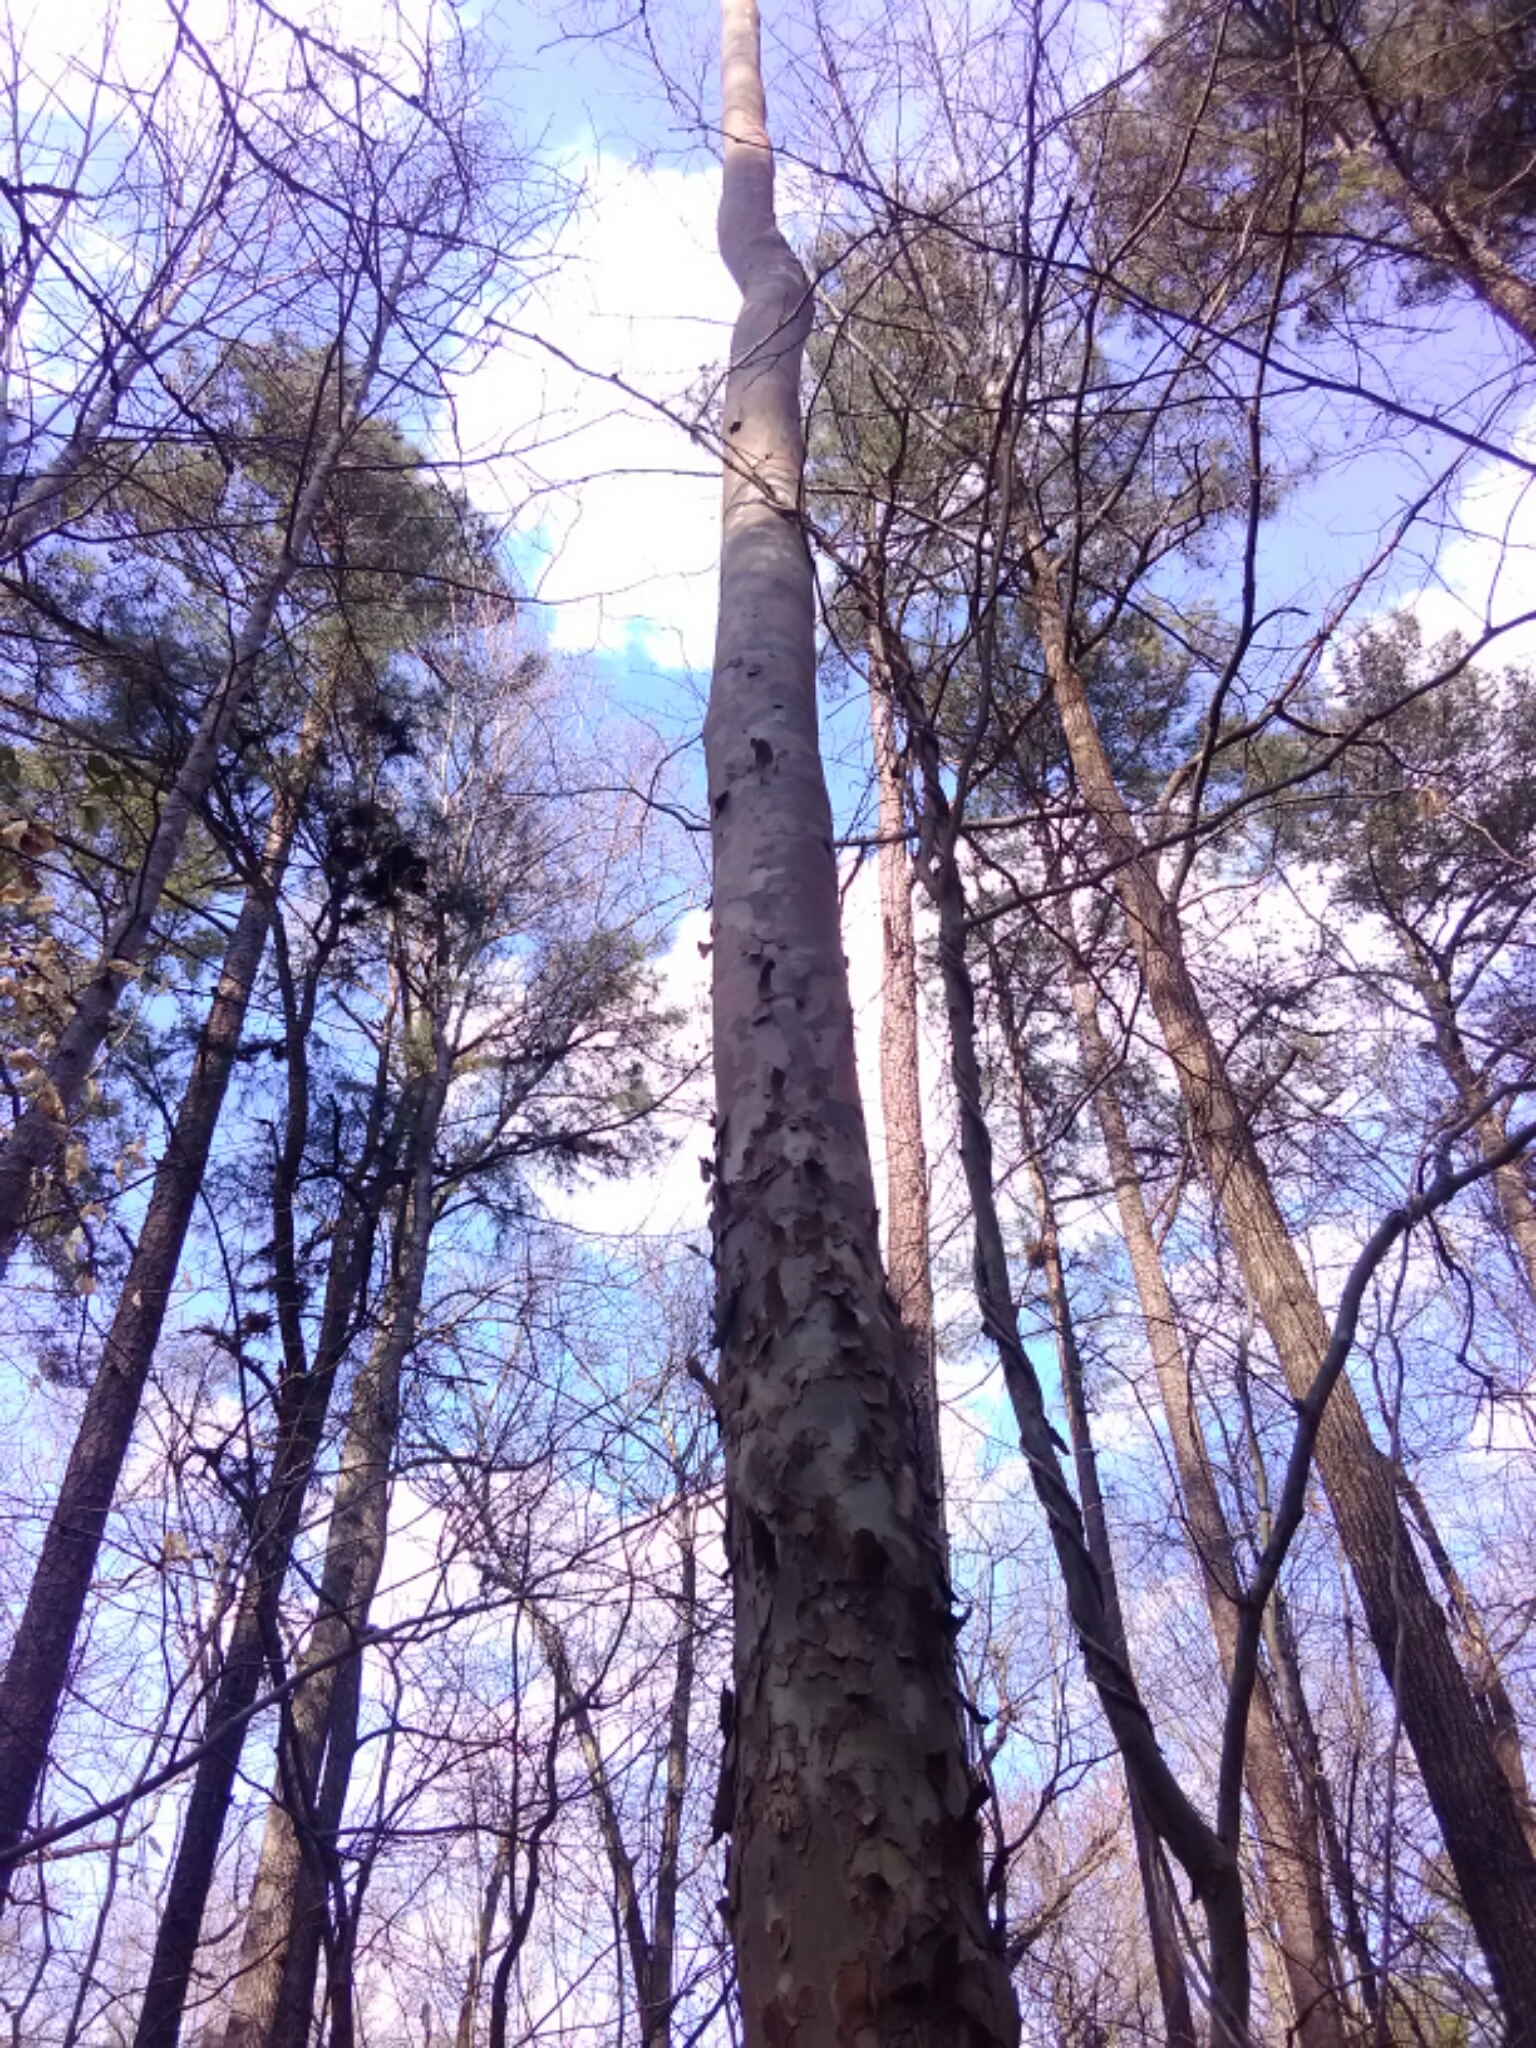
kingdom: Plantae
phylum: Tracheophyta
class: Magnoliopsida
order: Proteales
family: Platanaceae
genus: Platanus
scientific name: Platanus occidentalis
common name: American sycamore
